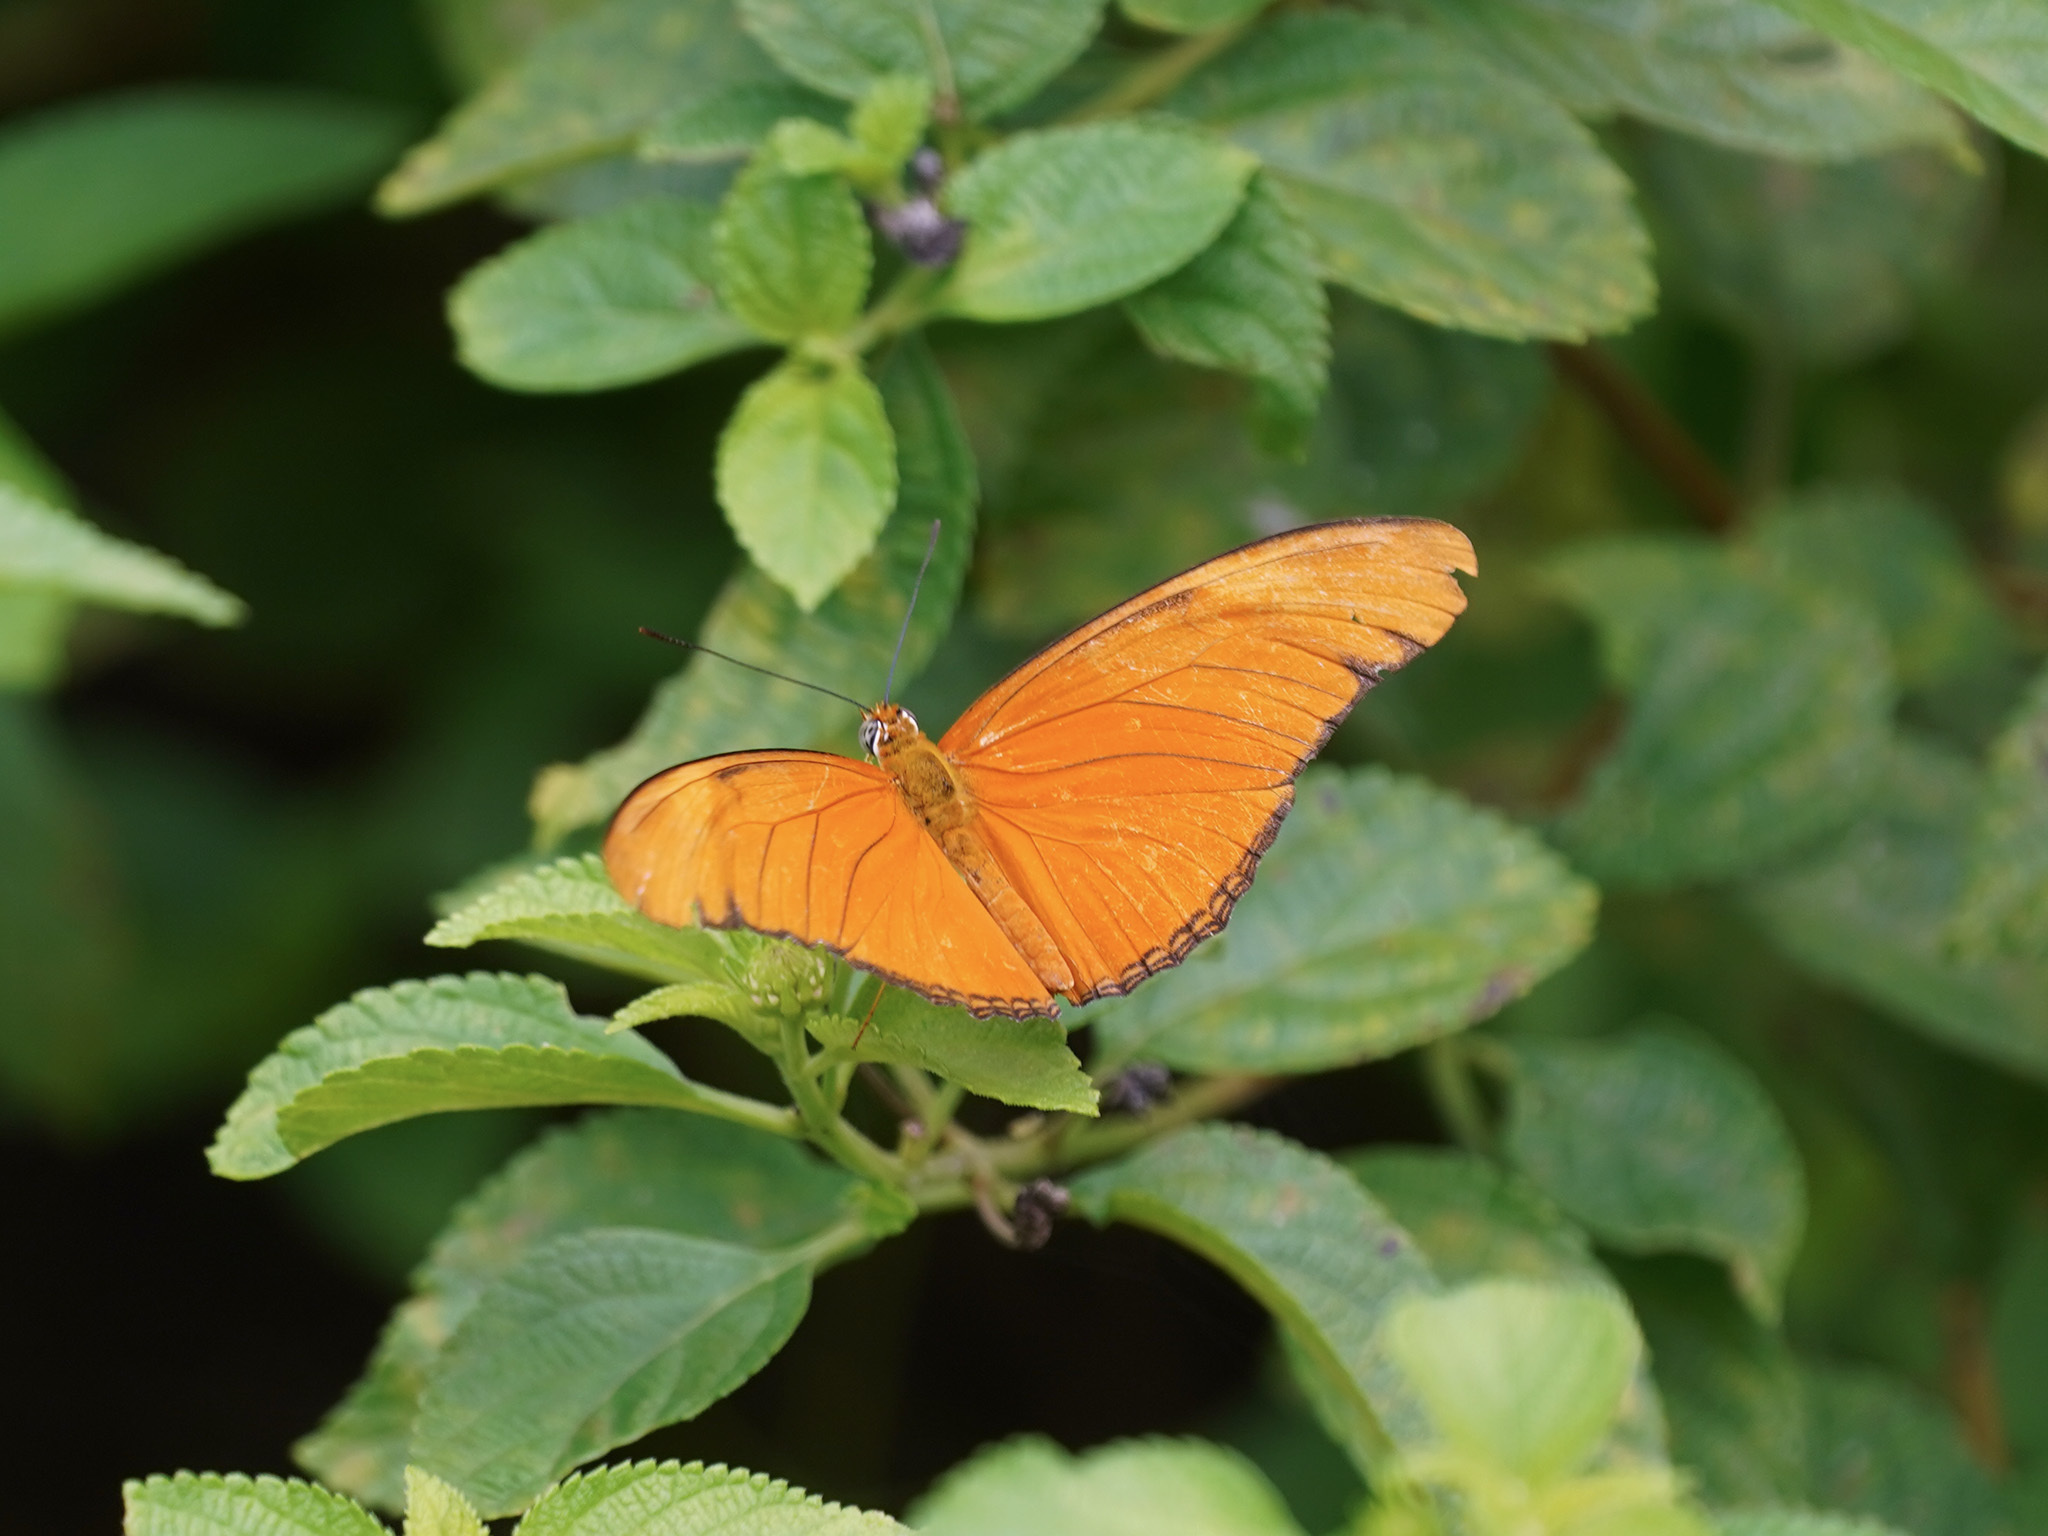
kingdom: Animalia
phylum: Arthropoda
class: Insecta
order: Lepidoptera
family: Nymphalidae
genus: Dryas
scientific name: Dryas iulia
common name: Flambeau
